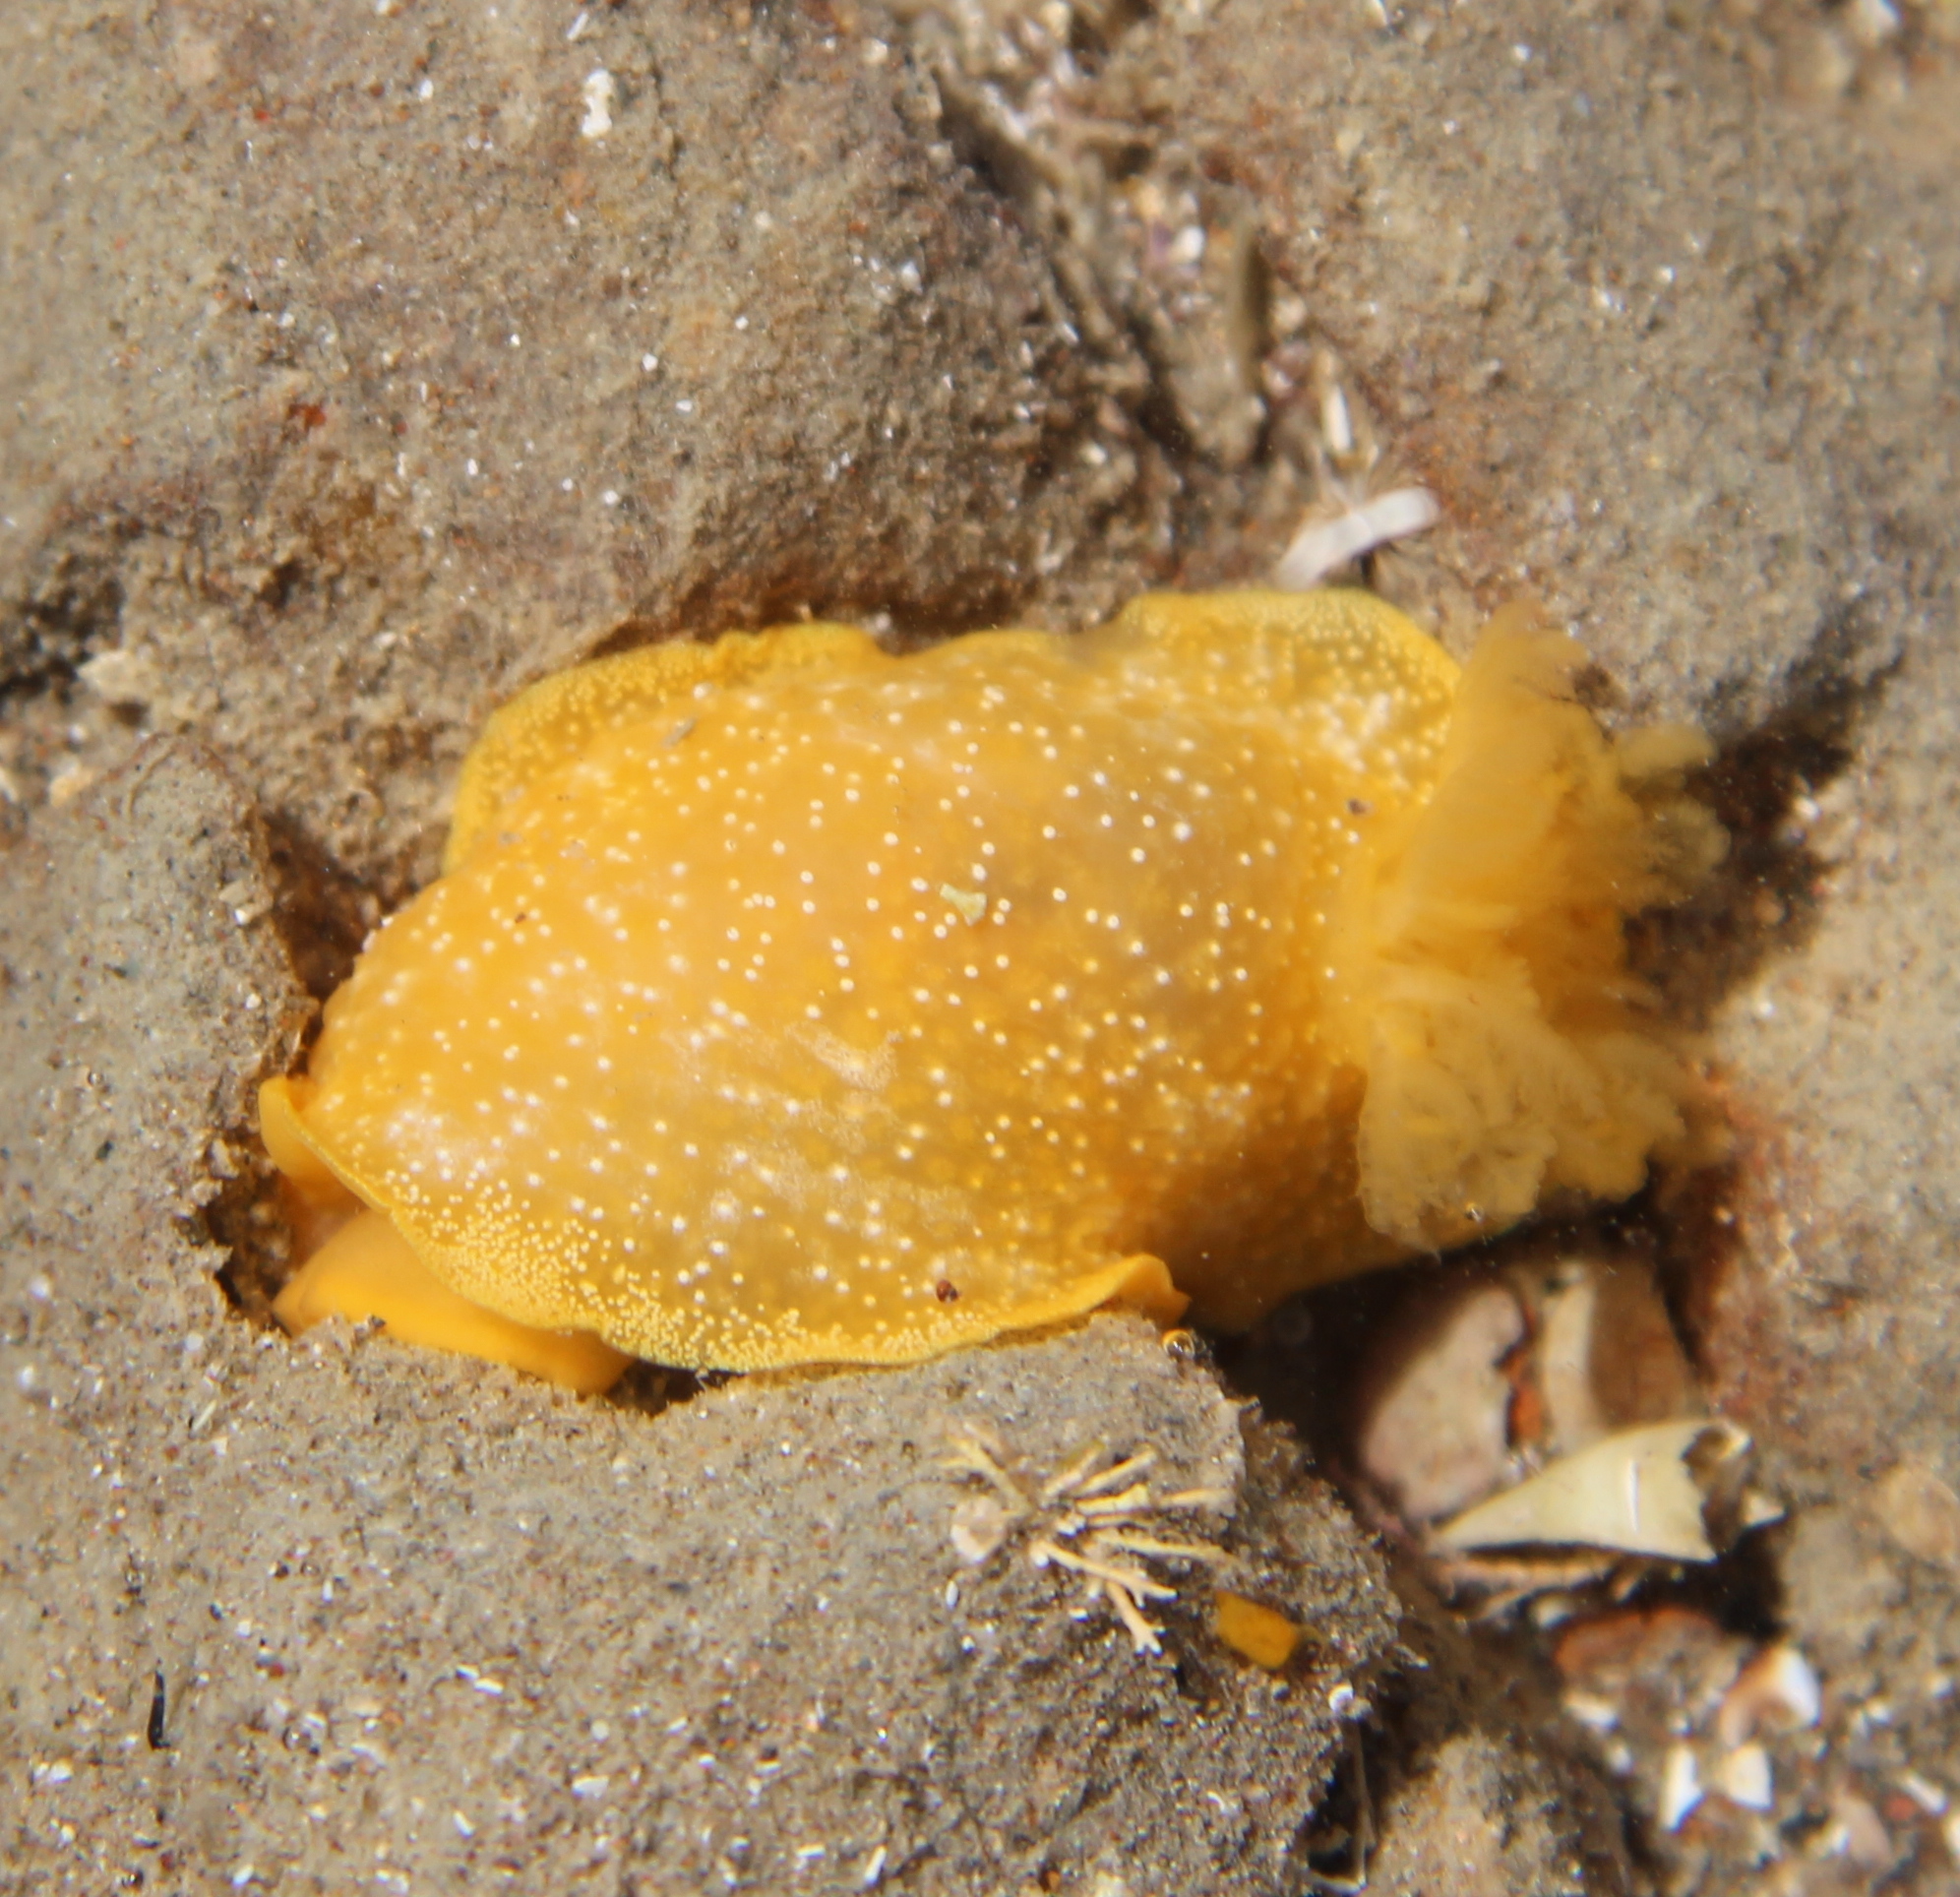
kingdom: Animalia
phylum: Mollusca
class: Gastropoda
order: Nudibranchia
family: Dendrodorididae
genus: Dendrodoris
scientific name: Dendrodoris citrina
